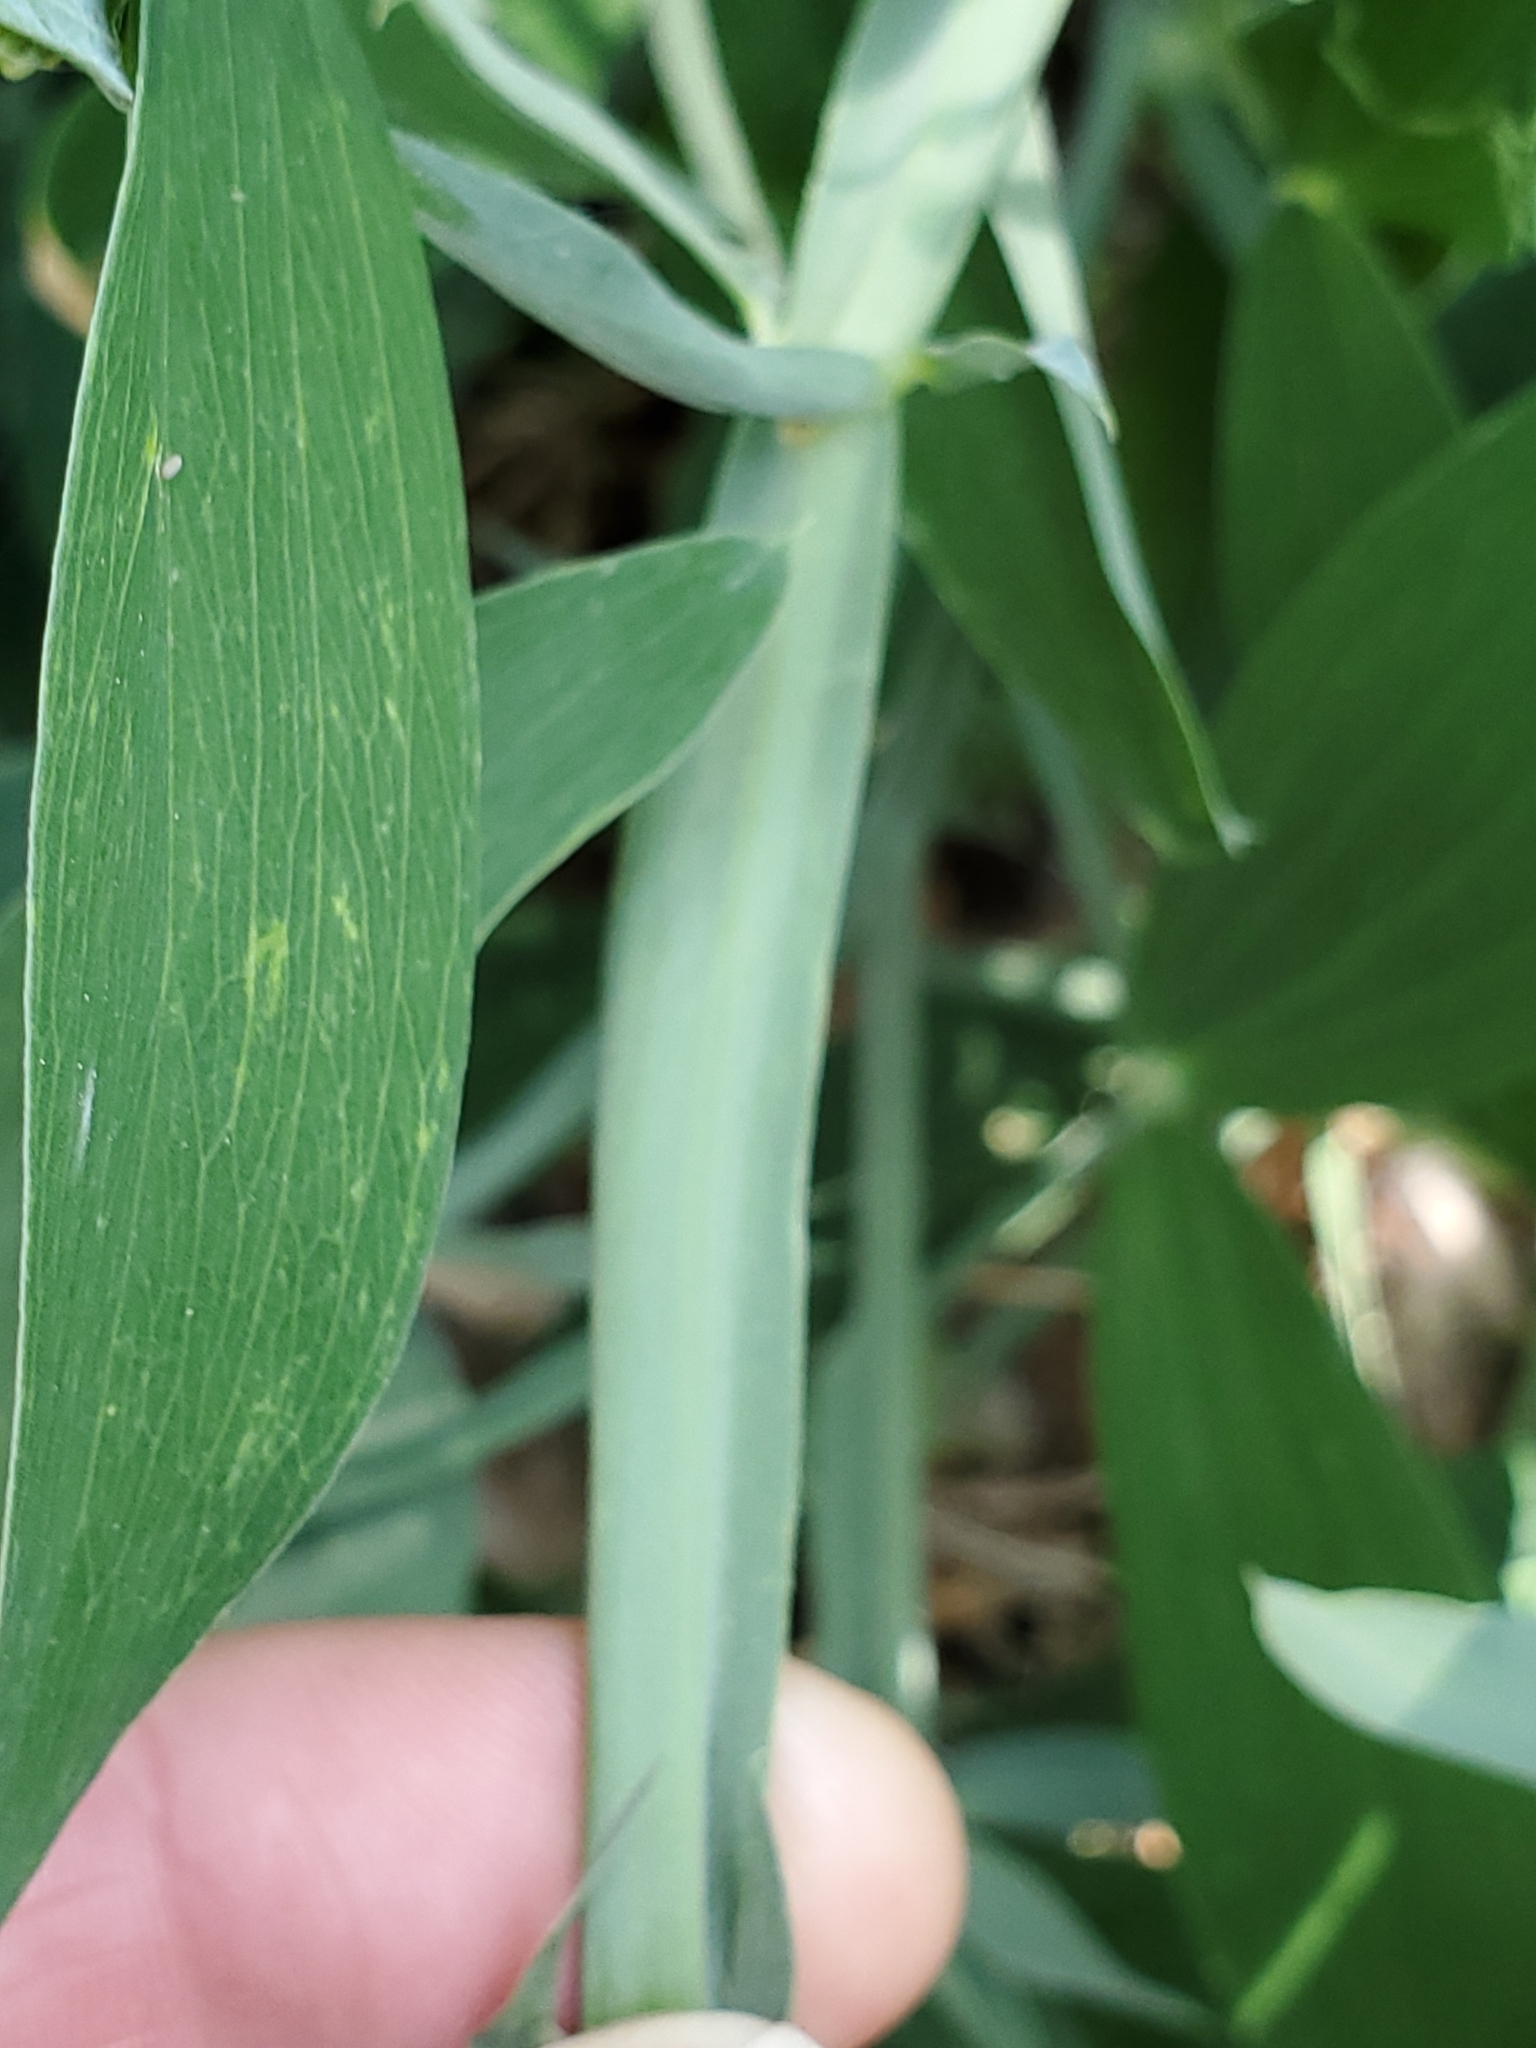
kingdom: Plantae
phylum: Tracheophyta
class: Magnoliopsida
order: Fabales
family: Fabaceae
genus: Lathyrus
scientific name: Lathyrus latifolius
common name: Perennial pea
